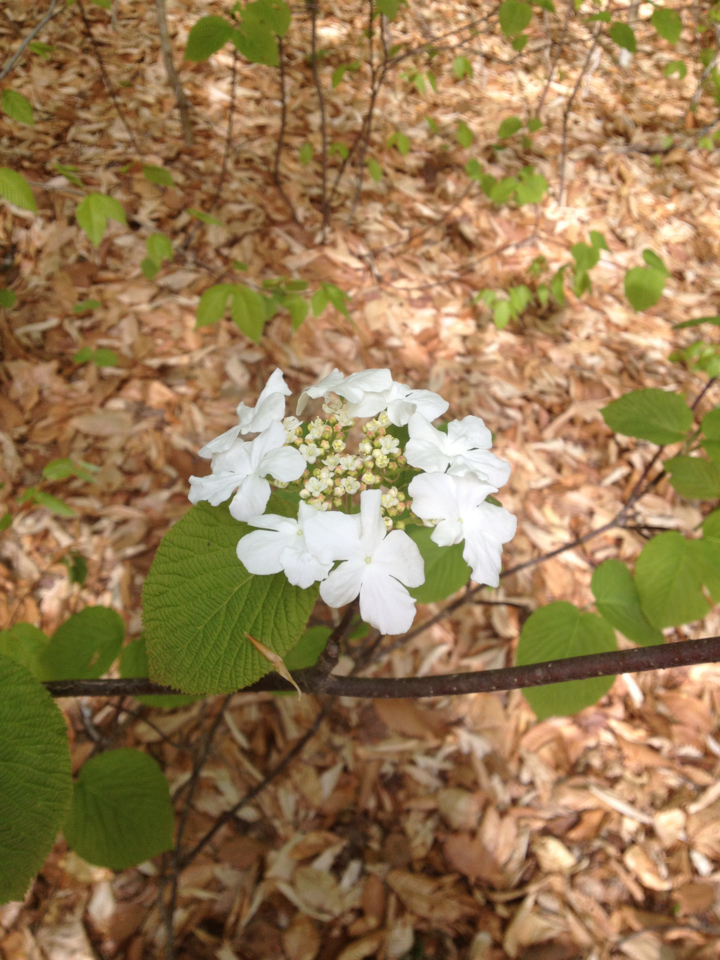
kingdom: Plantae
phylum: Tracheophyta
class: Magnoliopsida
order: Dipsacales
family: Viburnaceae
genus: Viburnum
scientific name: Viburnum lantanoides
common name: Hobblebush
